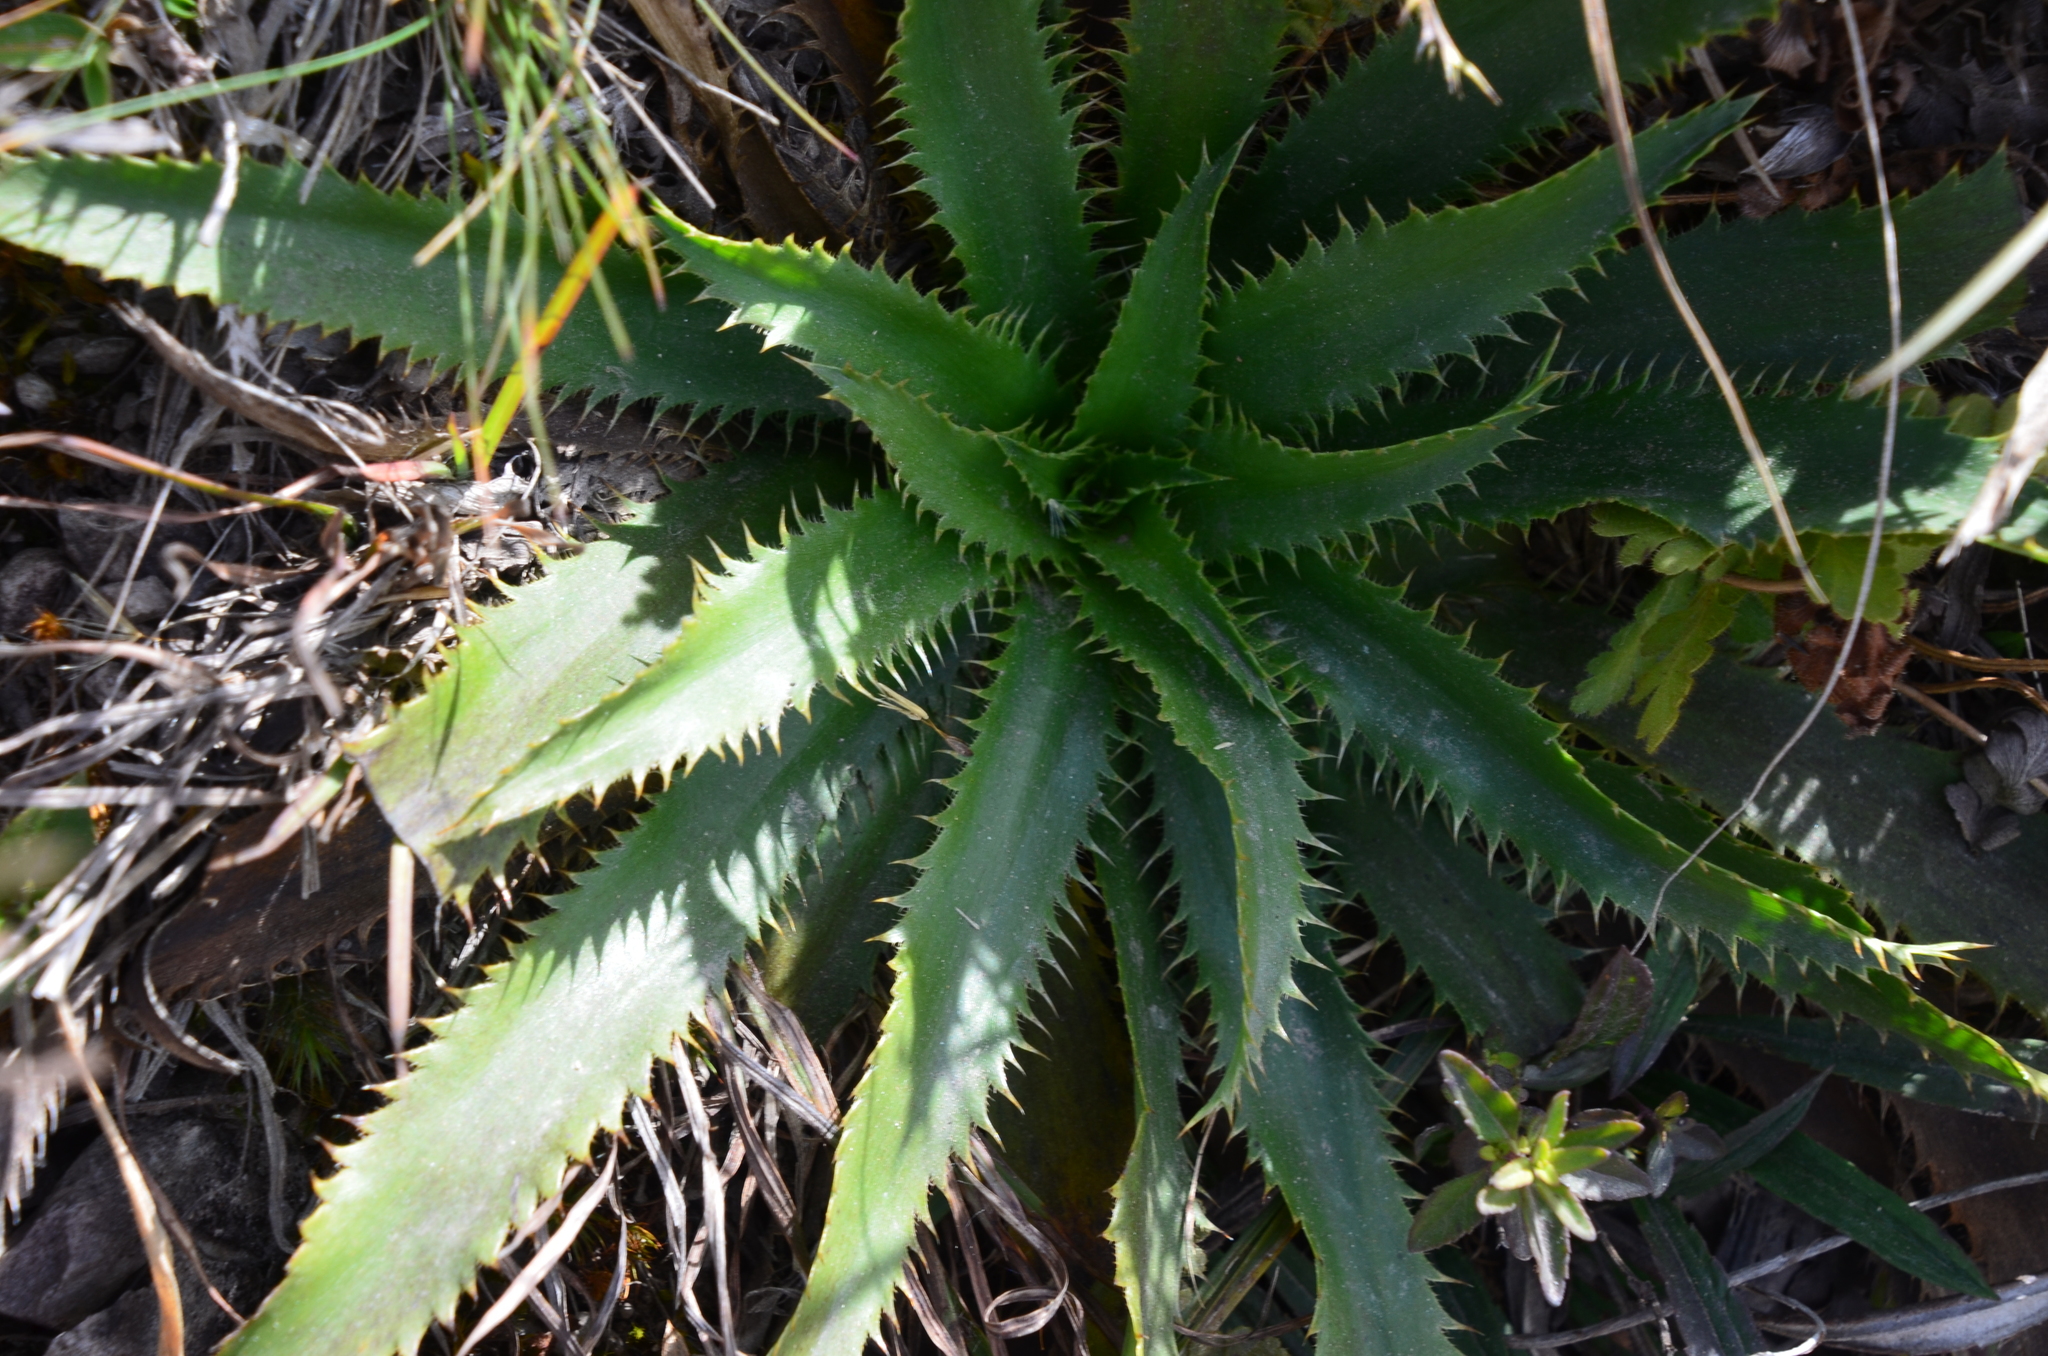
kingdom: Plantae
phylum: Tracheophyta
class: Magnoliopsida
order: Apiales
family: Apiaceae
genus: Eryngium
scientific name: Eryngium elegans
